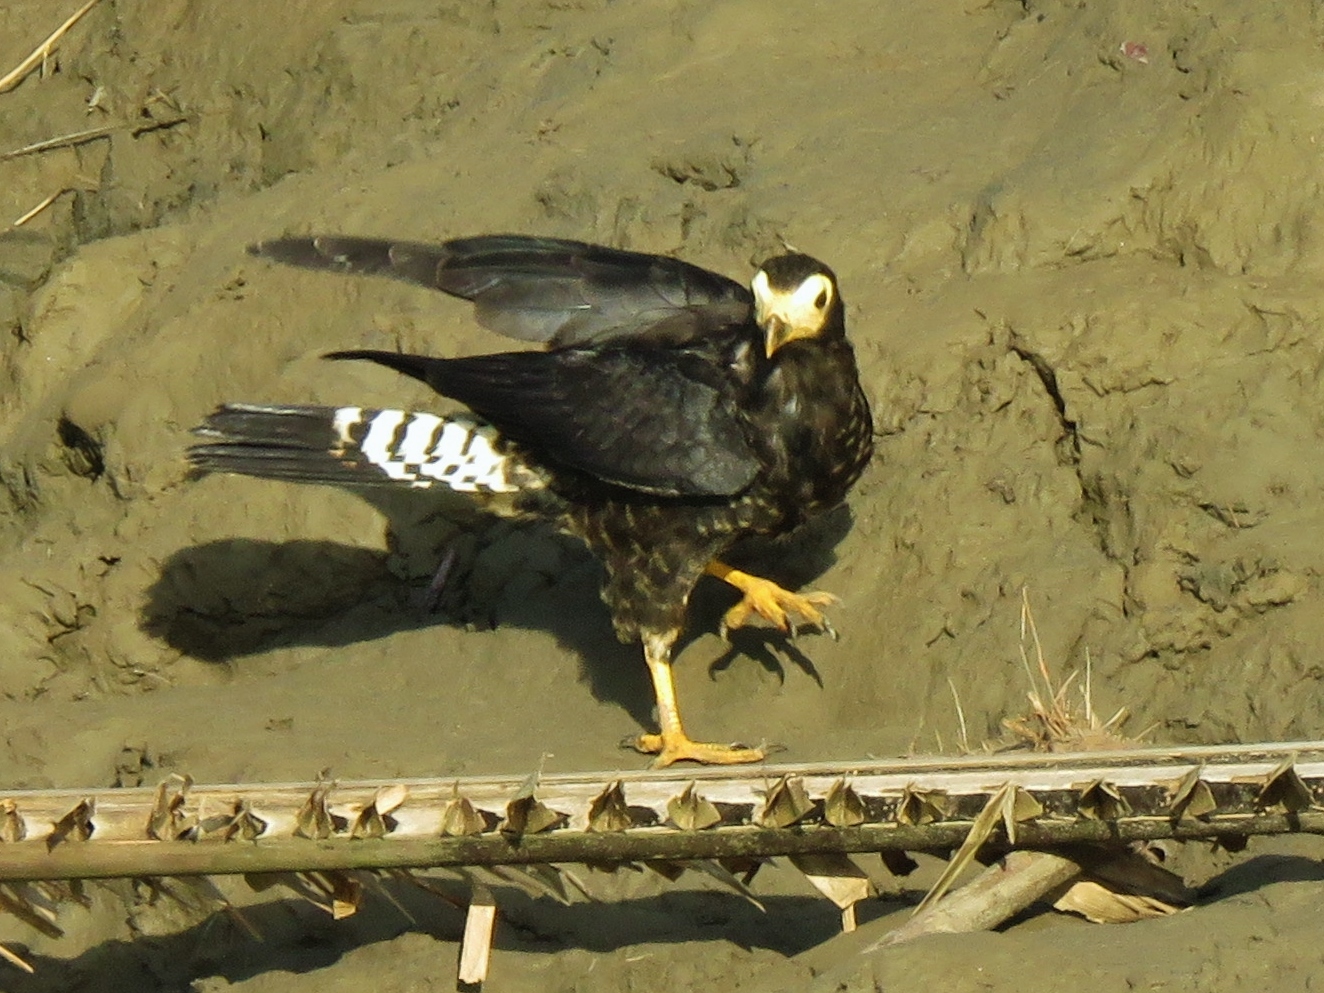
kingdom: Animalia
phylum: Chordata
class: Aves
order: Falconiformes
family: Falconidae
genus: Daptrius
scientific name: Daptrius ater
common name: Black caracara
